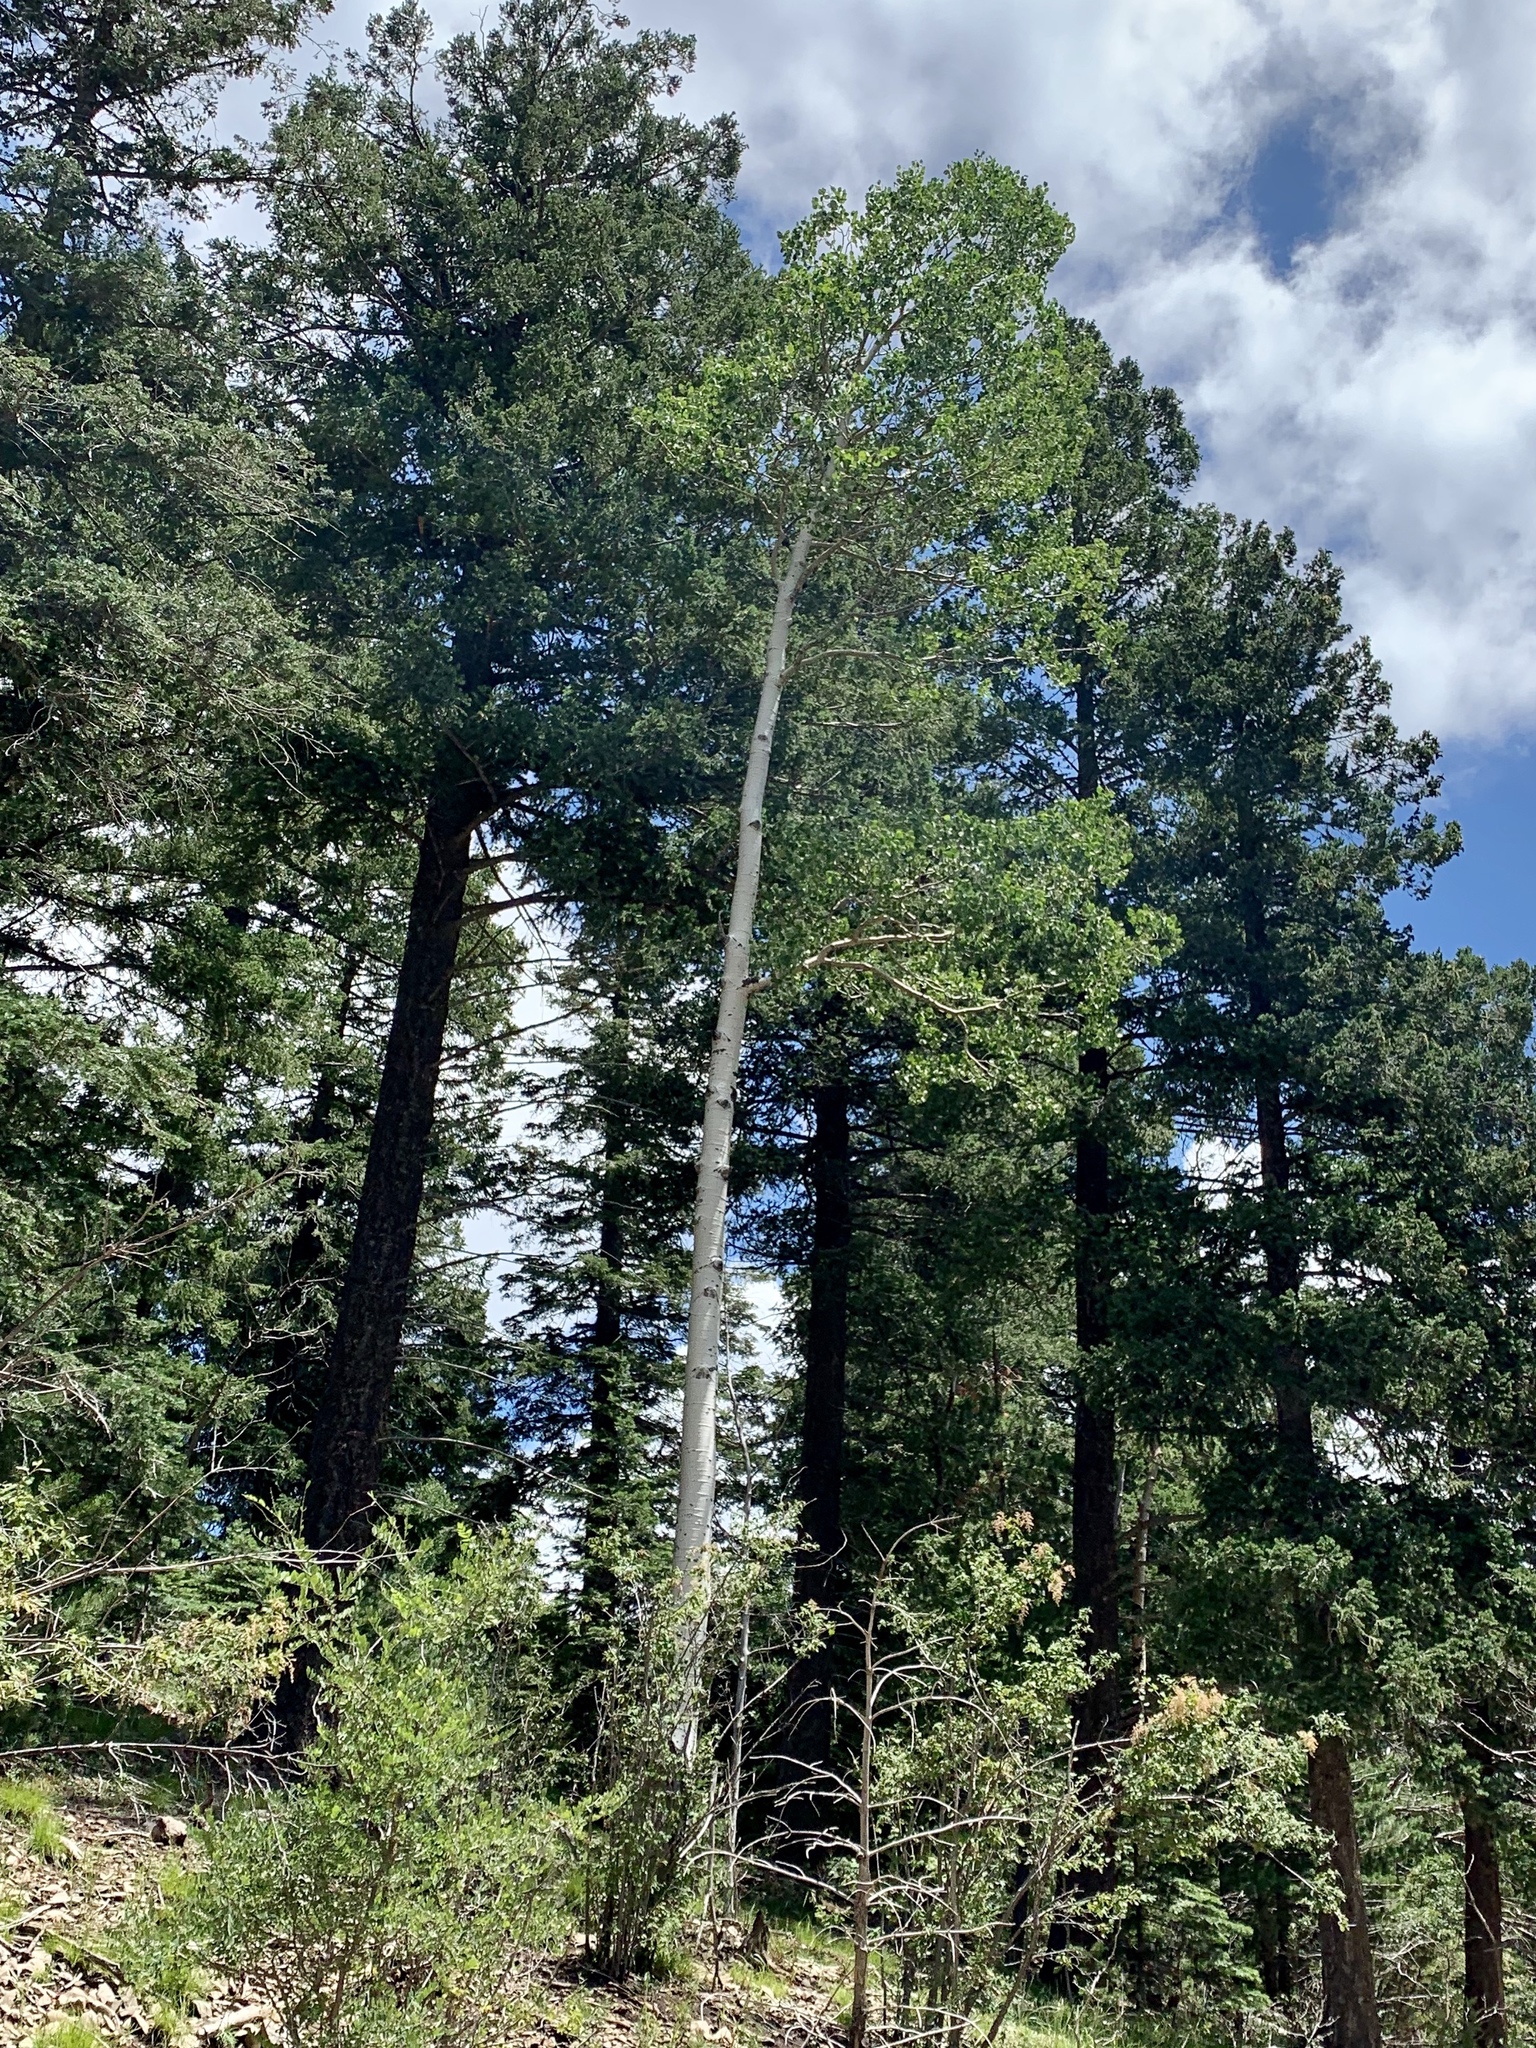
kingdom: Plantae
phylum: Tracheophyta
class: Magnoliopsida
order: Malpighiales
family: Salicaceae
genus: Populus
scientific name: Populus tremuloides
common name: Quaking aspen
